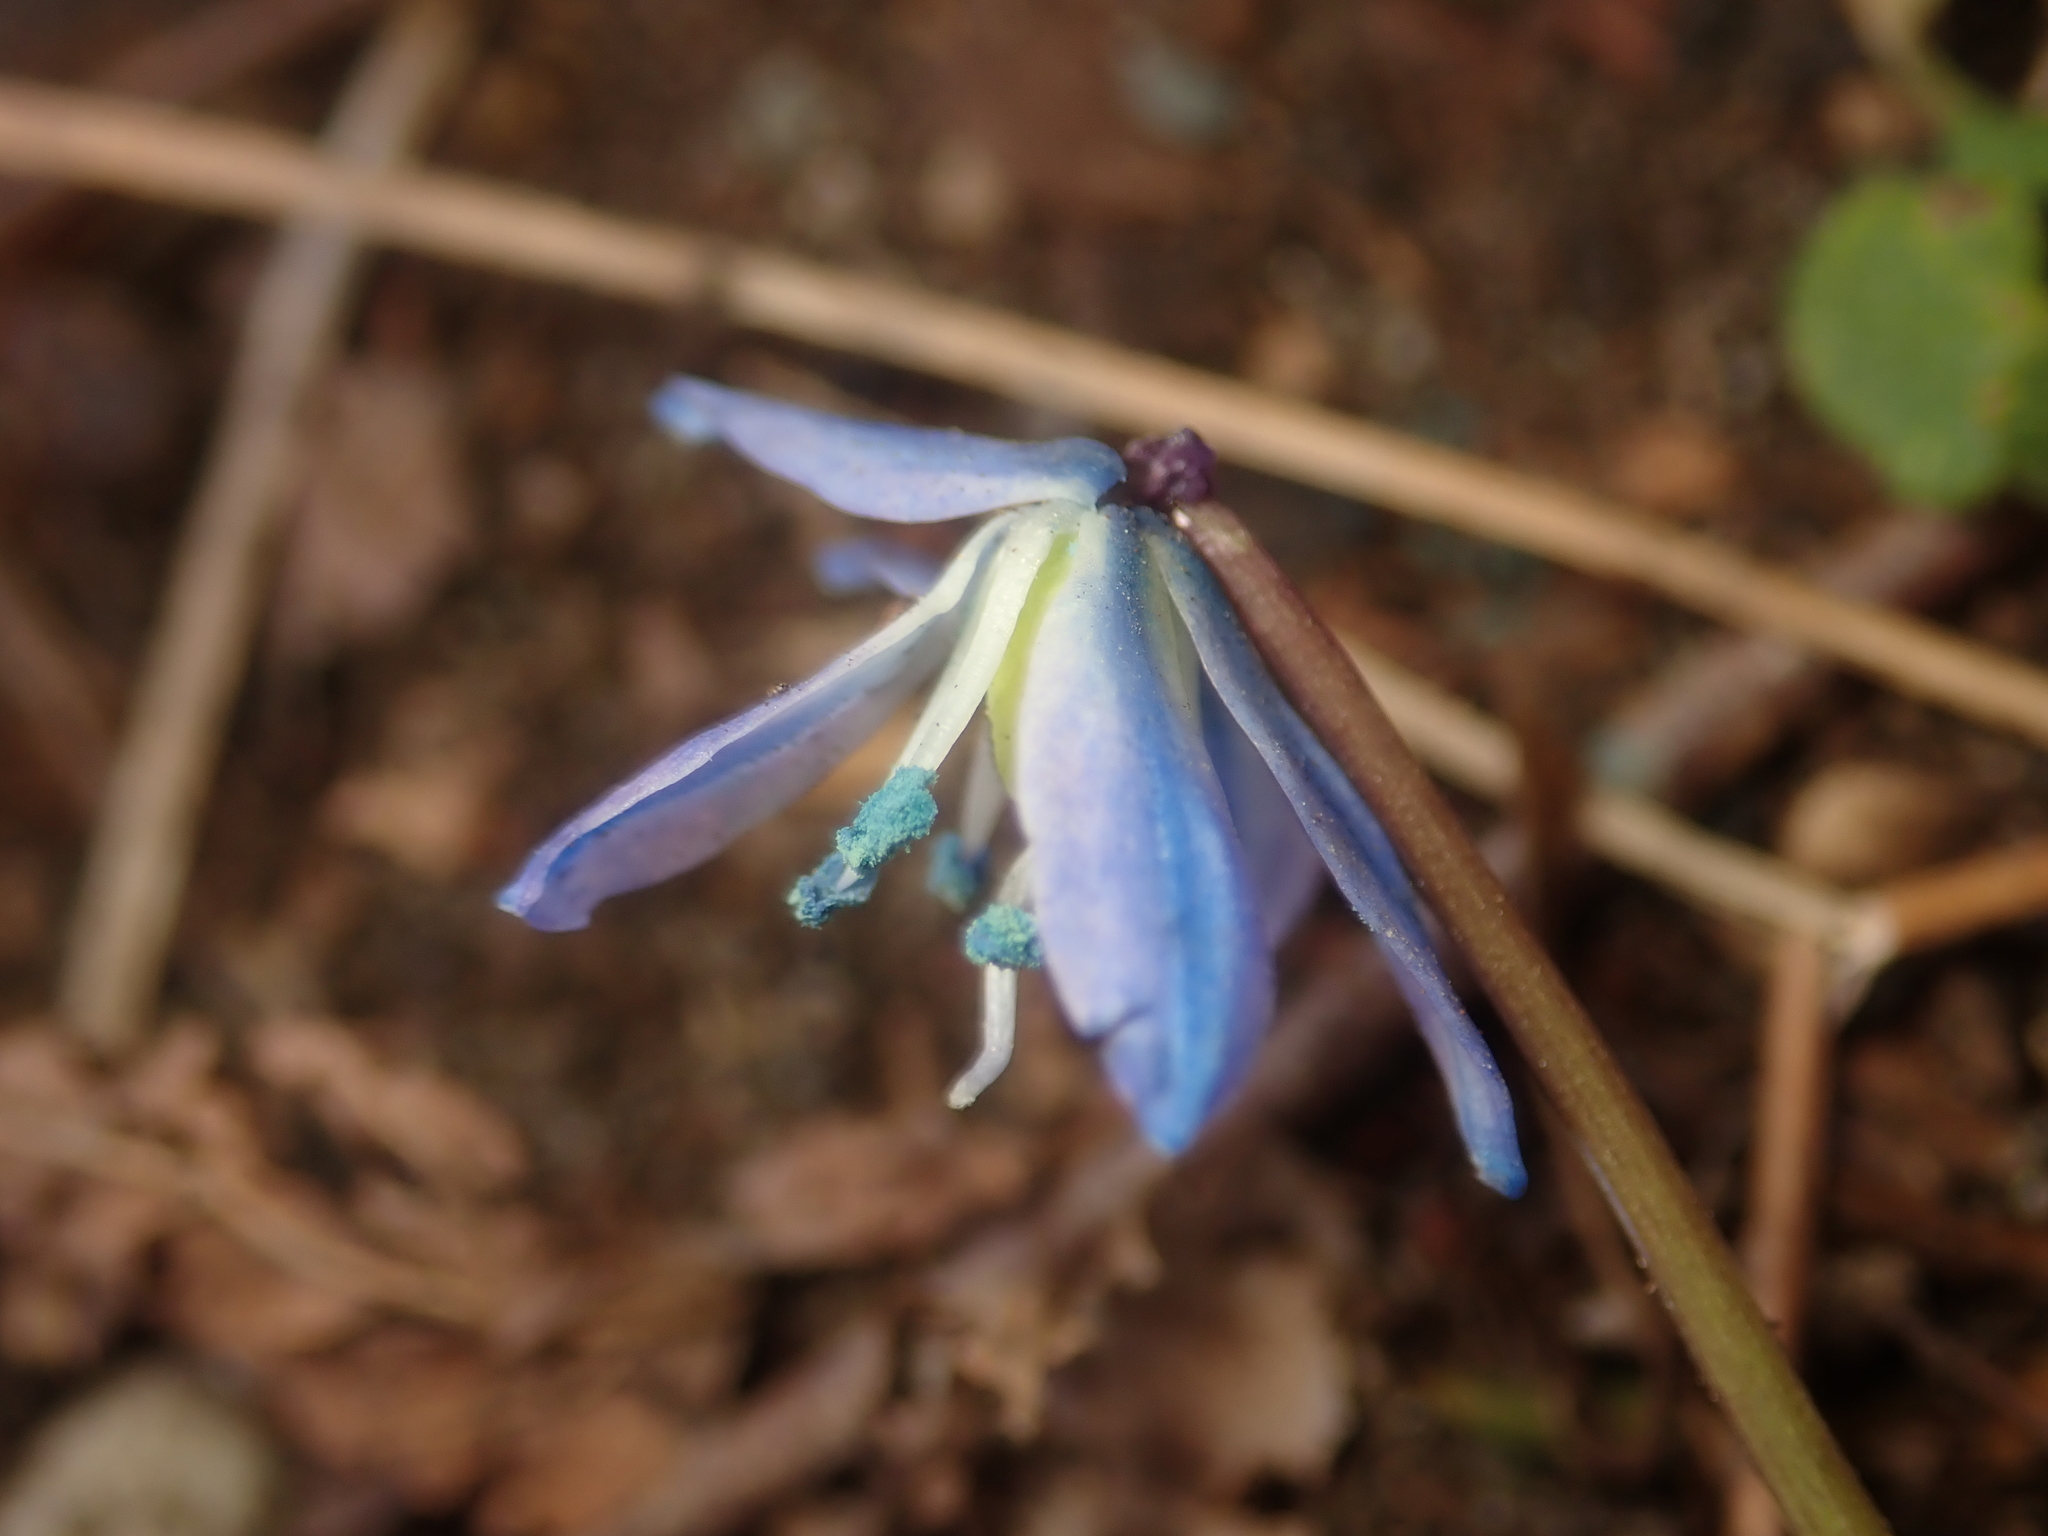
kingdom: Plantae
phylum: Tracheophyta
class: Liliopsida
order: Asparagales
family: Asparagaceae
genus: Scilla
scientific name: Scilla siberica
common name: Siberian squill
